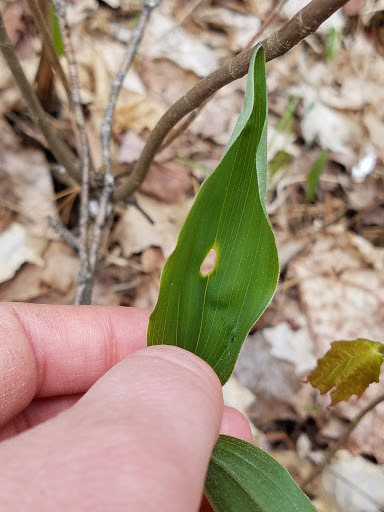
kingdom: Plantae
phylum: Tracheophyta
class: Liliopsida
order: Asparagales
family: Asparagaceae
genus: Maianthemum
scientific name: Maianthemum racemosum
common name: False spikenard
